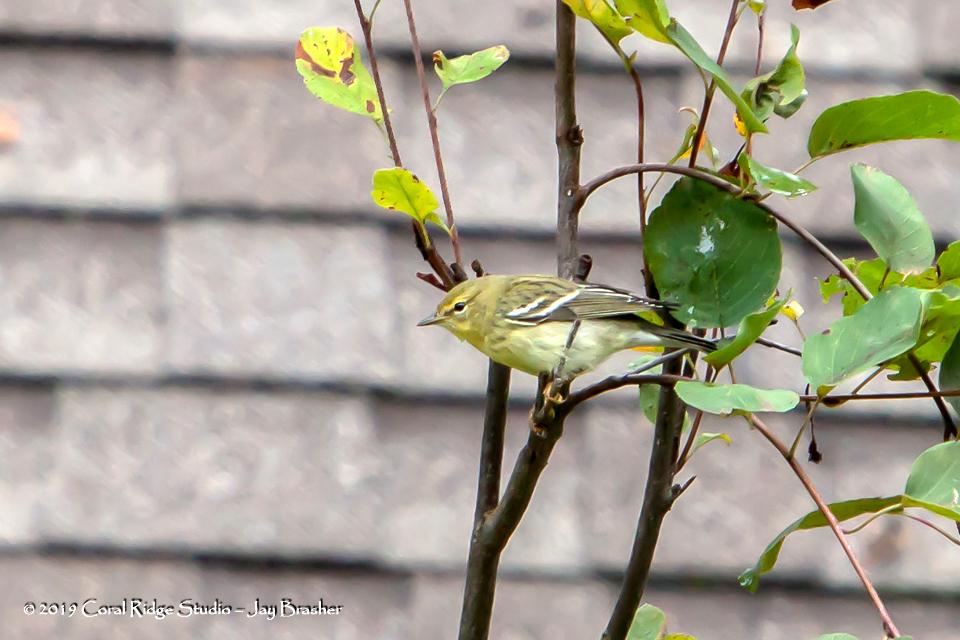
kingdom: Animalia
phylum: Chordata
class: Aves
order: Passeriformes
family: Parulidae
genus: Setophaga
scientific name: Setophaga striata
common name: Blackpoll warbler
